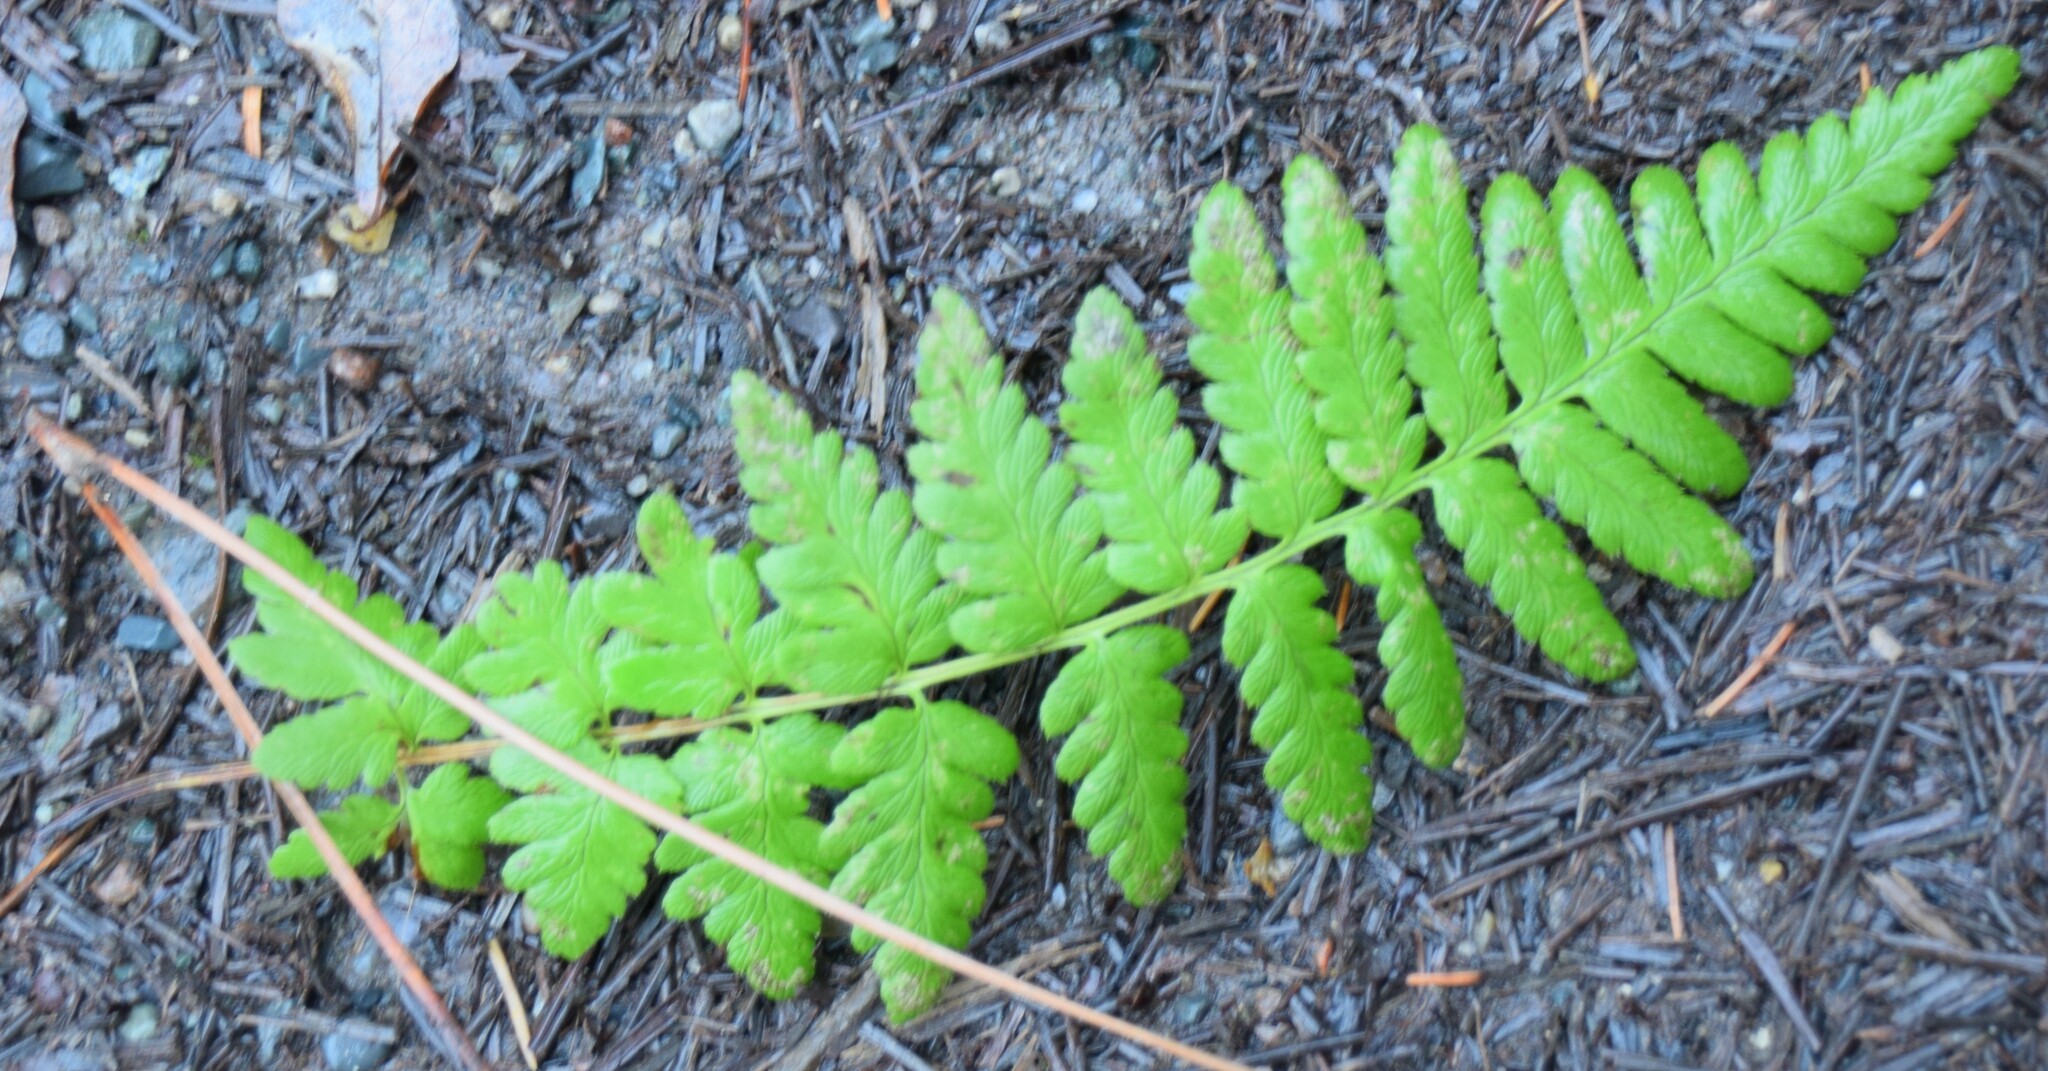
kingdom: Plantae
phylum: Tracheophyta
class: Polypodiopsida
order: Polypodiales
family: Dryopteridaceae
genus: Dryopteris
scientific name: Dryopteris cristata
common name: Crested wood fern
